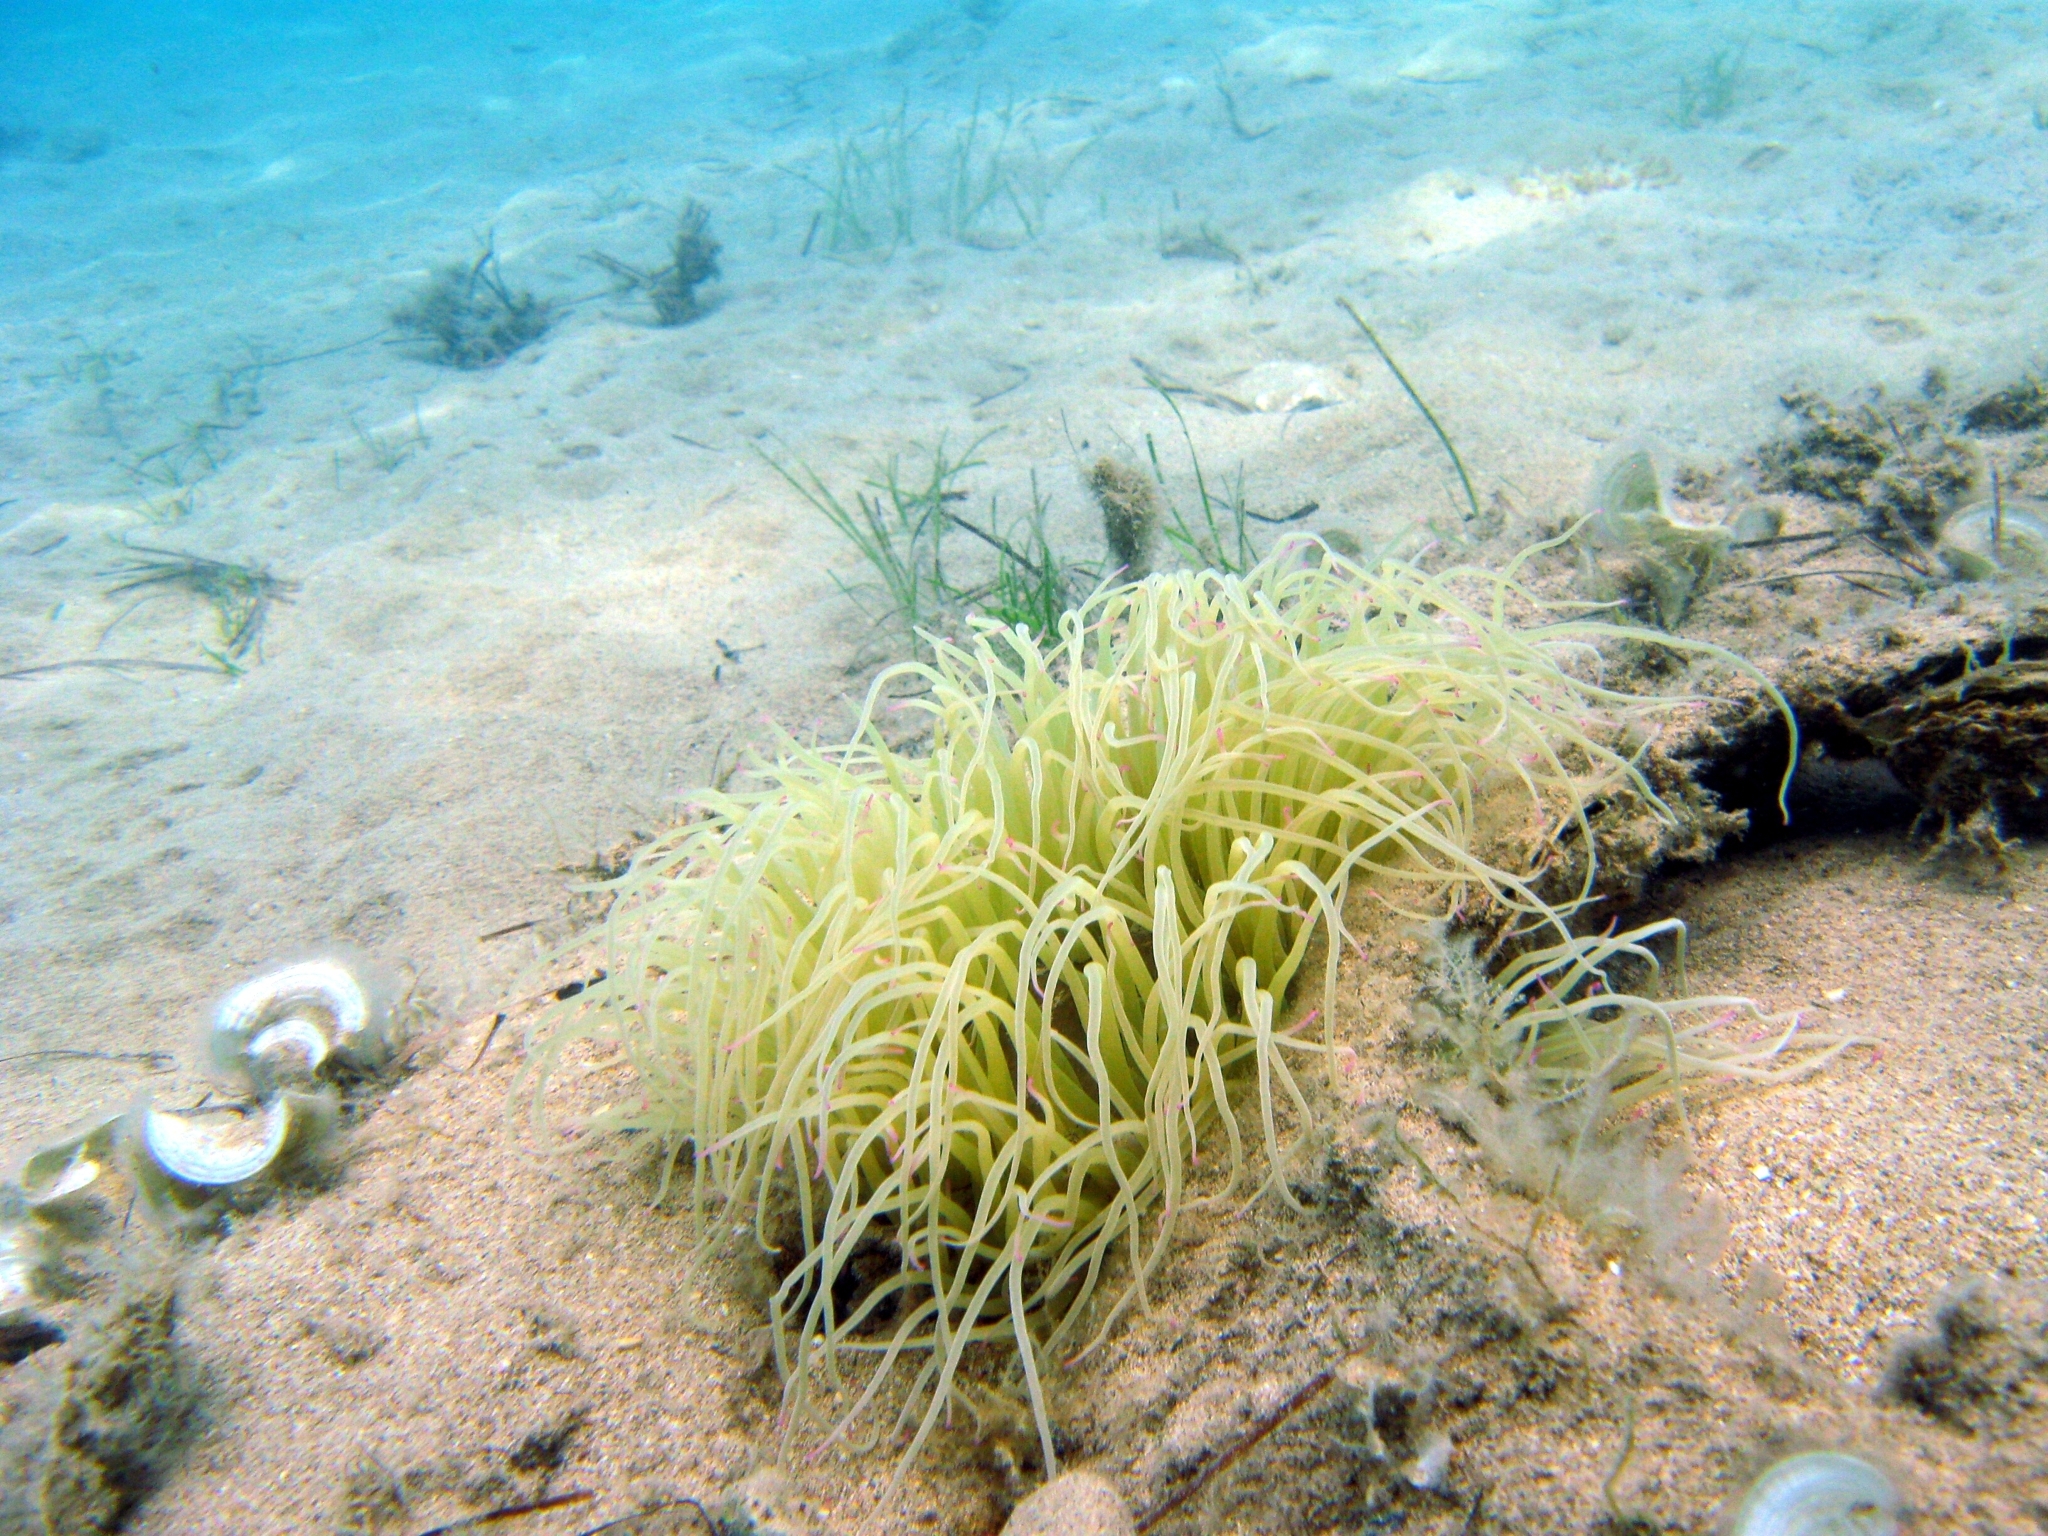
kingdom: Animalia
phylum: Cnidaria
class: Anthozoa
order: Actiniaria
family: Actiniidae
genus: Anemonia
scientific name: Anemonia viridis
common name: Snakelocks anemone
